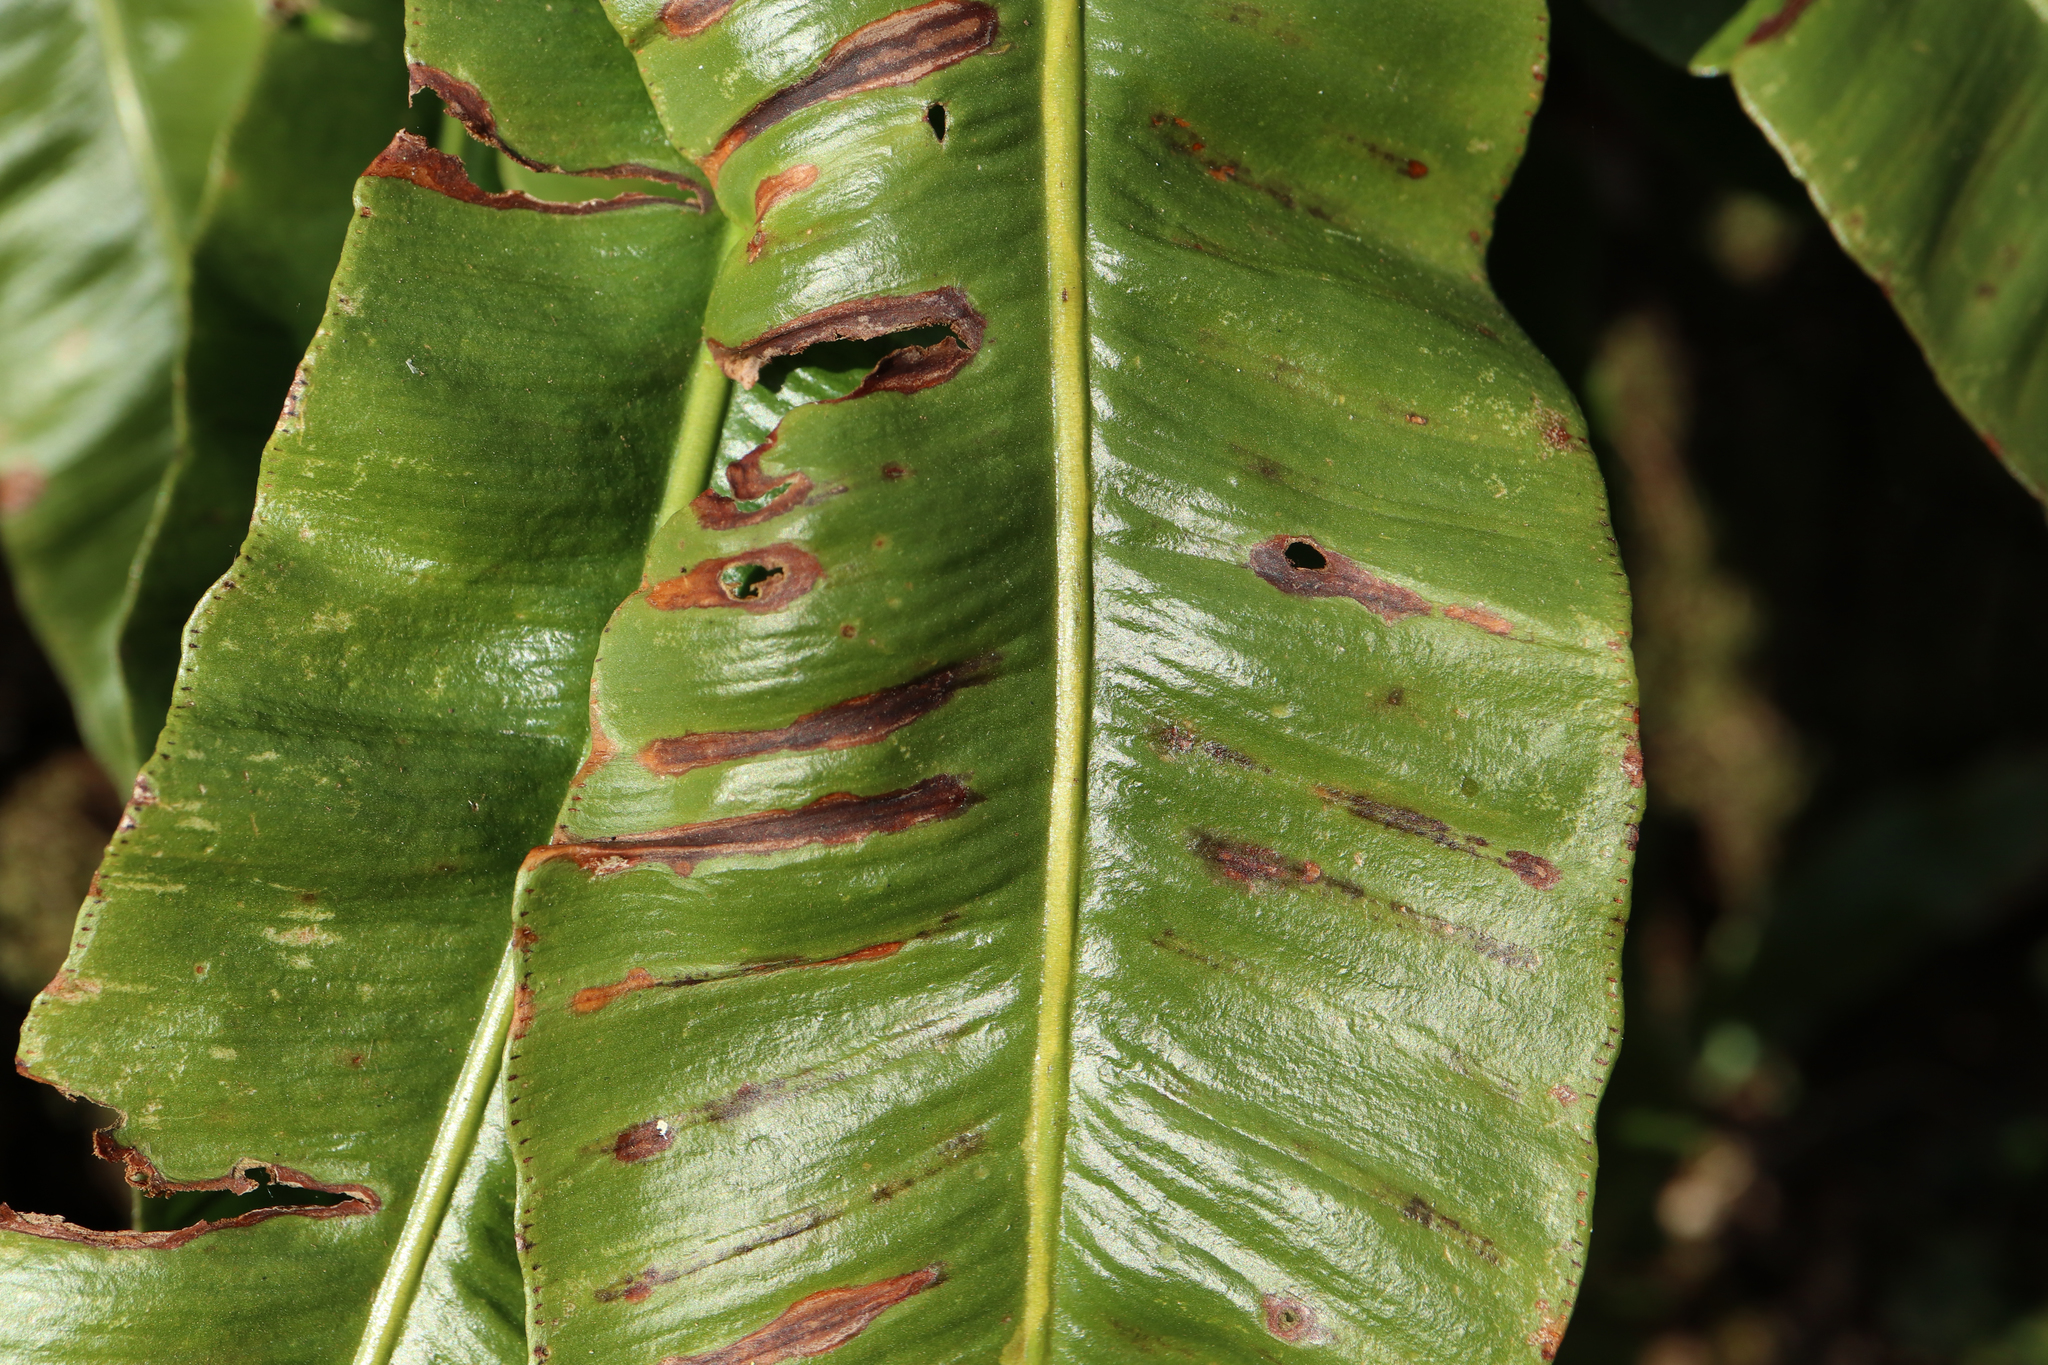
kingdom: Plantae
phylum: Tracheophyta
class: Polypodiopsida
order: Polypodiales
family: Aspleniaceae
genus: Asplenium
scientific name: Asplenium scolopendrium
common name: Hart's-tongue fern
